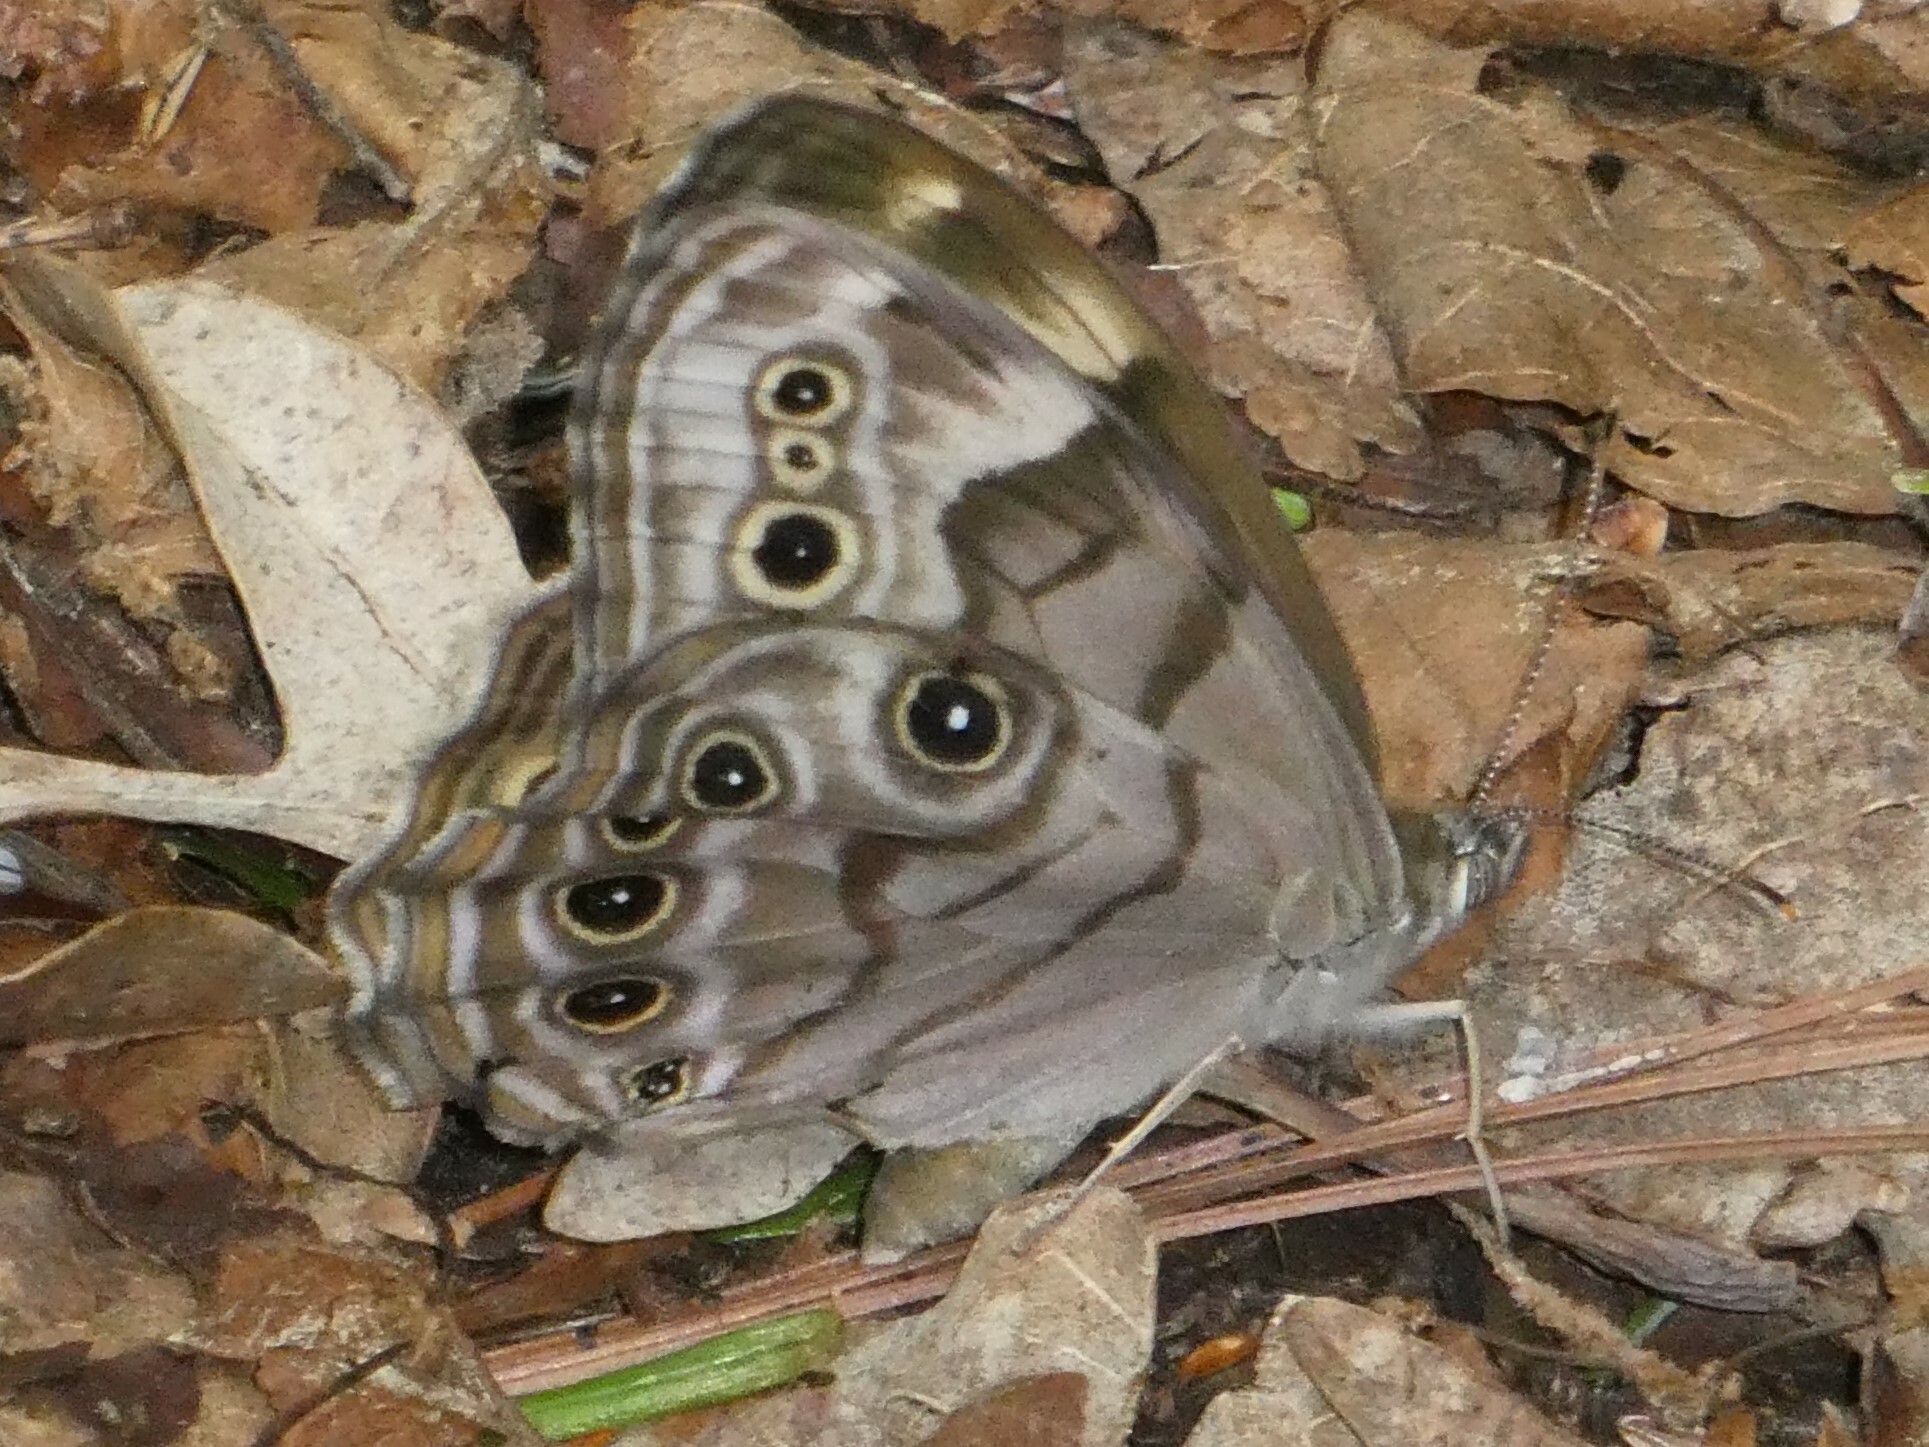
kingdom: Animalia
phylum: Arthropoda
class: Insecta
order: Lepidoptera
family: Nymphalidae
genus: Lethe
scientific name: Lethe anthedon
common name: Northern pearly-eye
